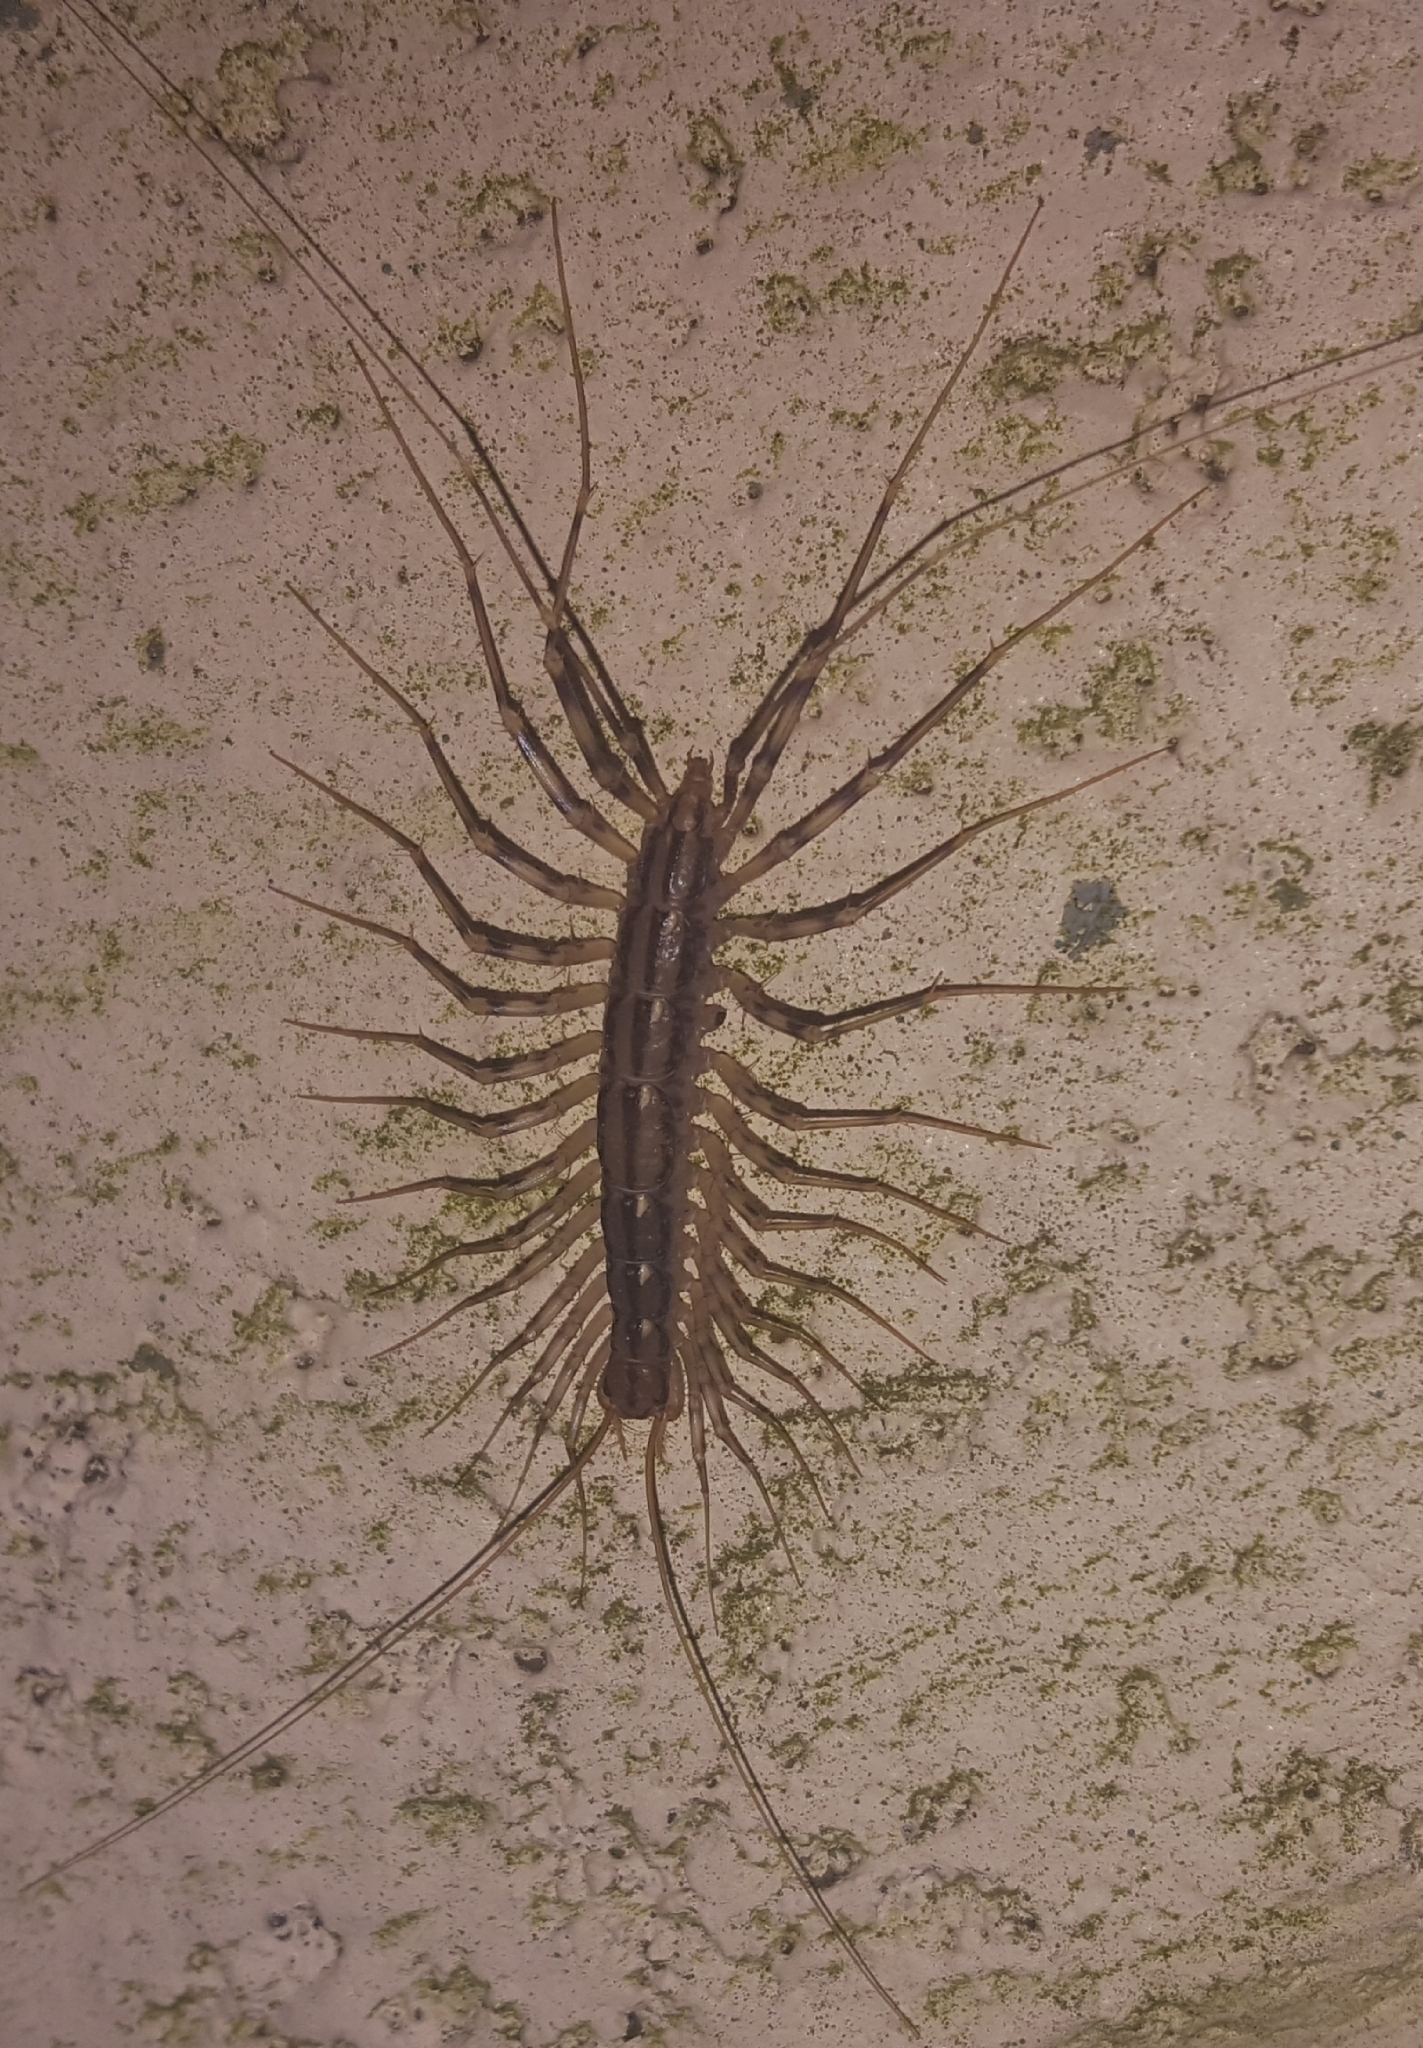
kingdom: Animalia
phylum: Arthropoda
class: Chilopoda
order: Scutigeromorpha
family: Scutigeridae
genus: Scutigera
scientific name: Scutigera coleoptrata
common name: House centipede
